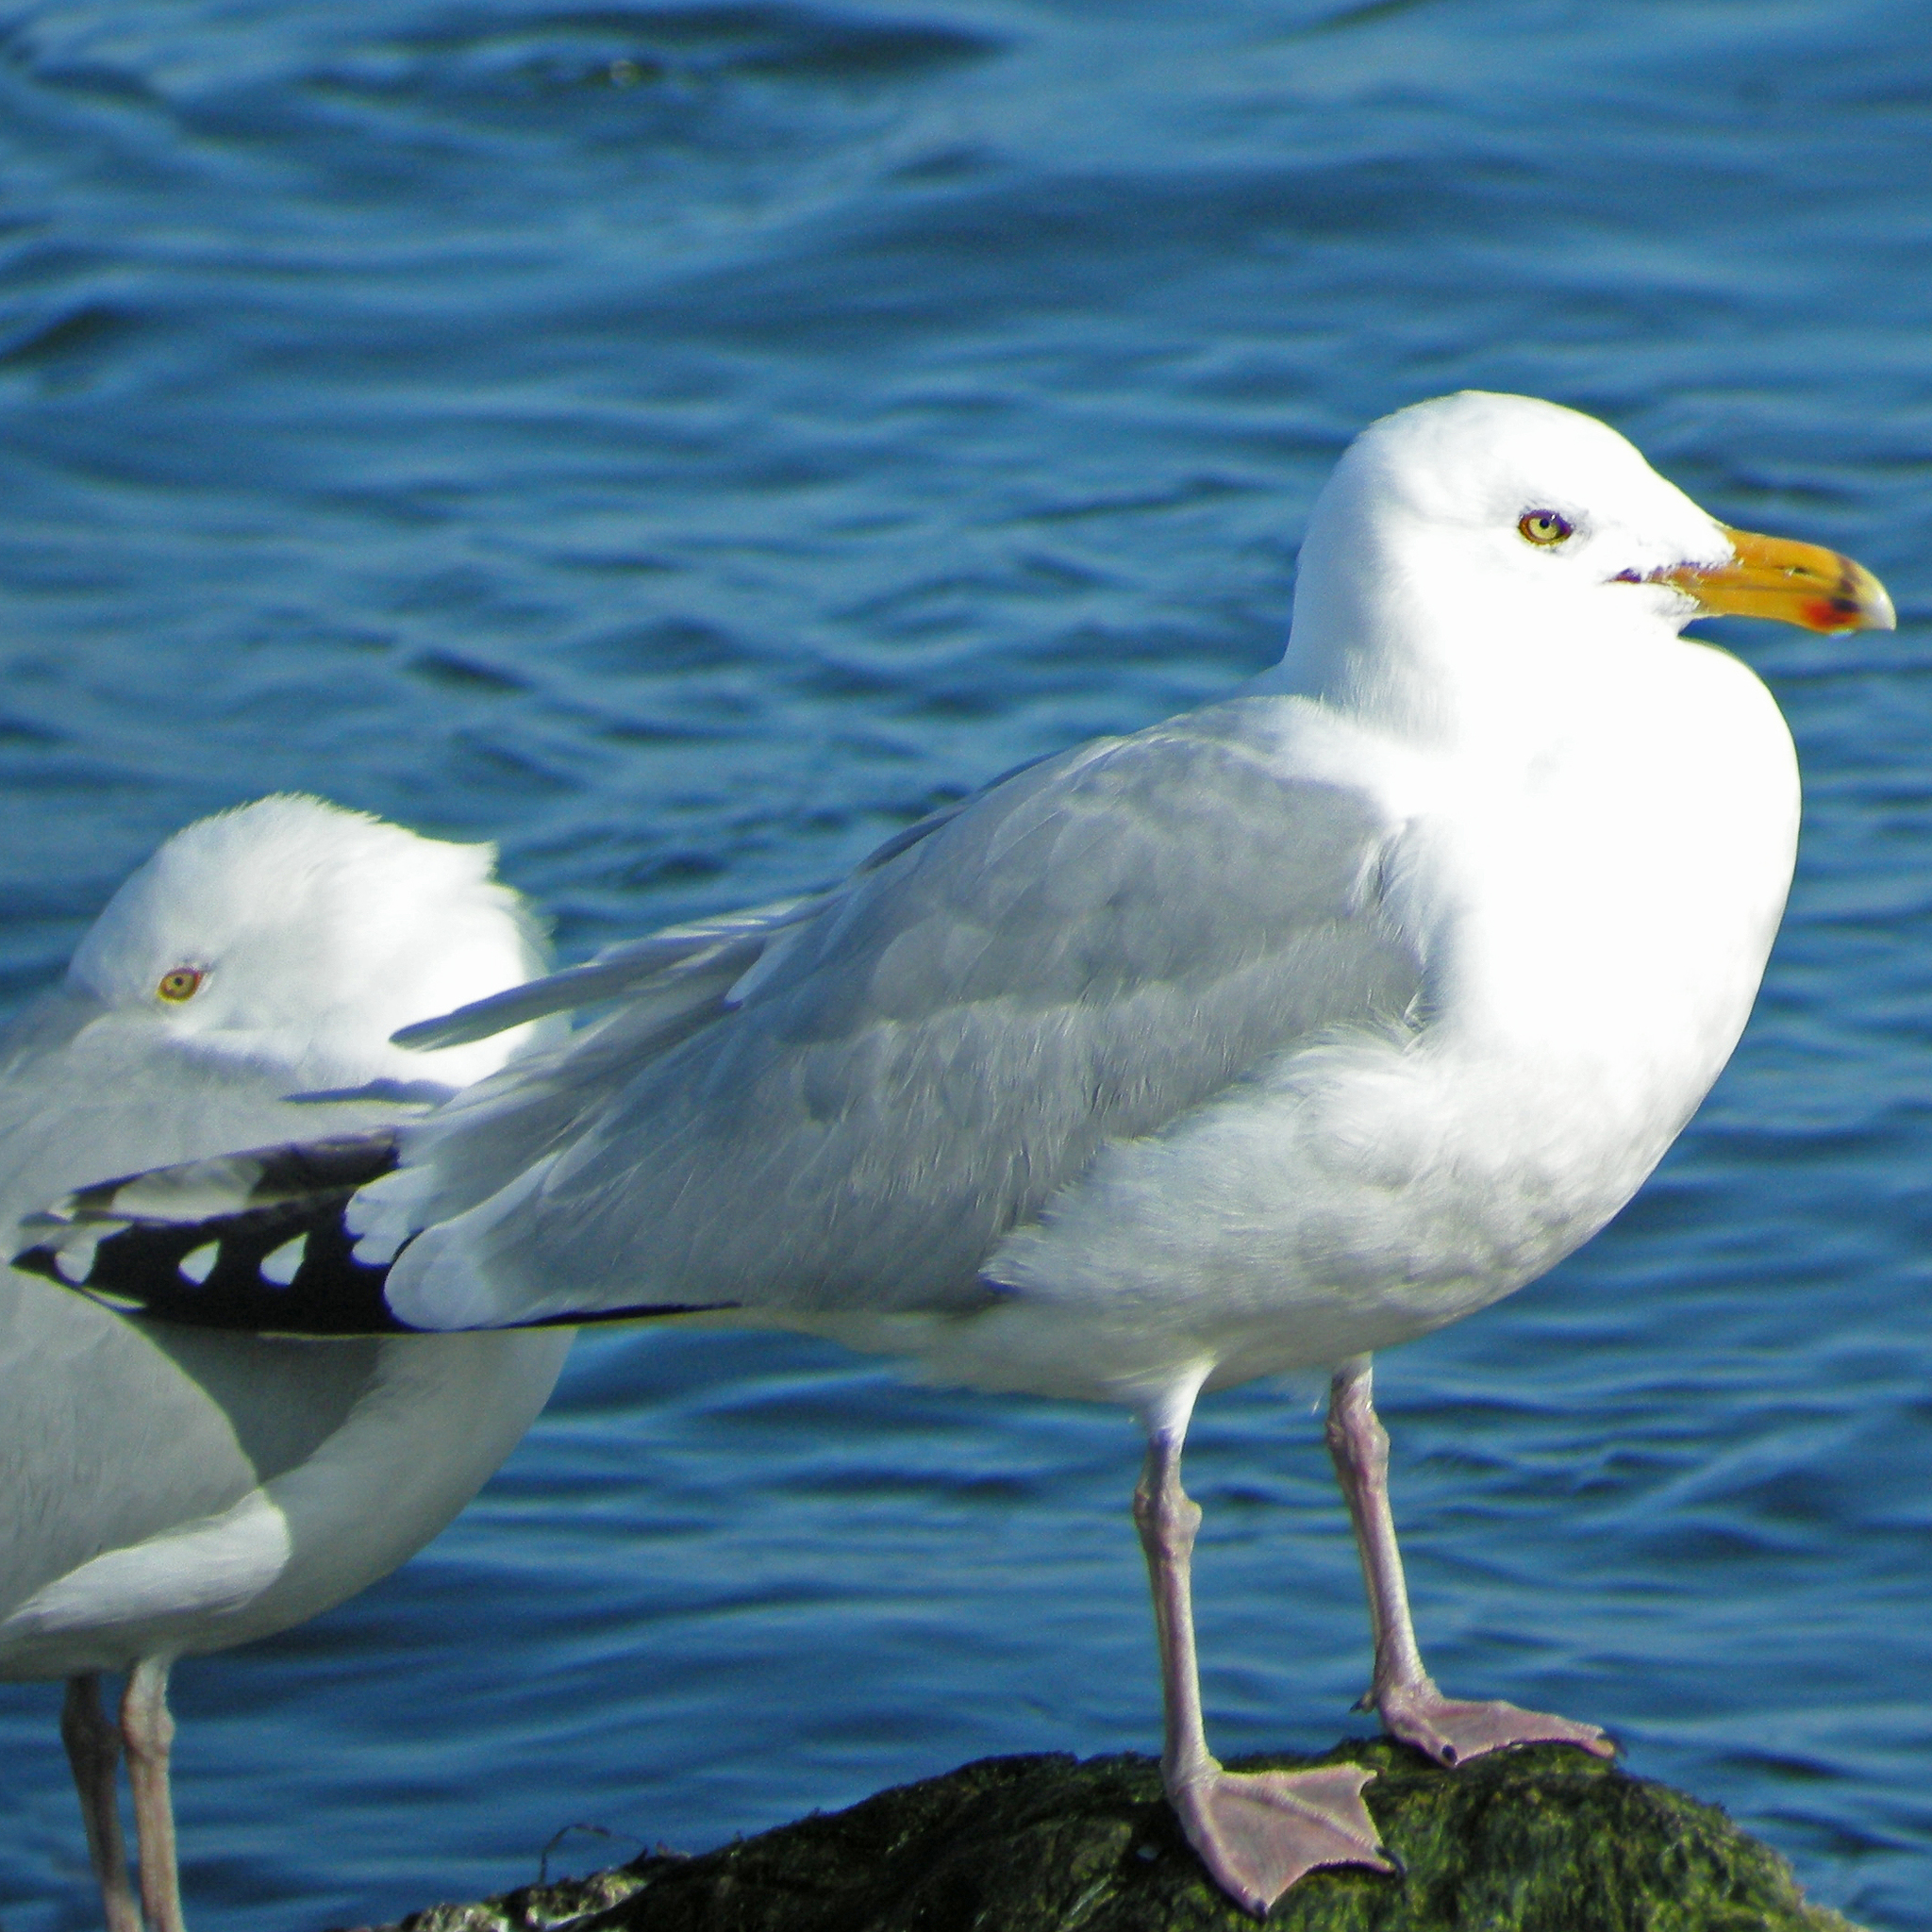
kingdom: Animalia
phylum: Chordata
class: Aves
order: Charadriiformes
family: Laridae
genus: Larus
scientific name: Larus argentatus
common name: Herring gull
